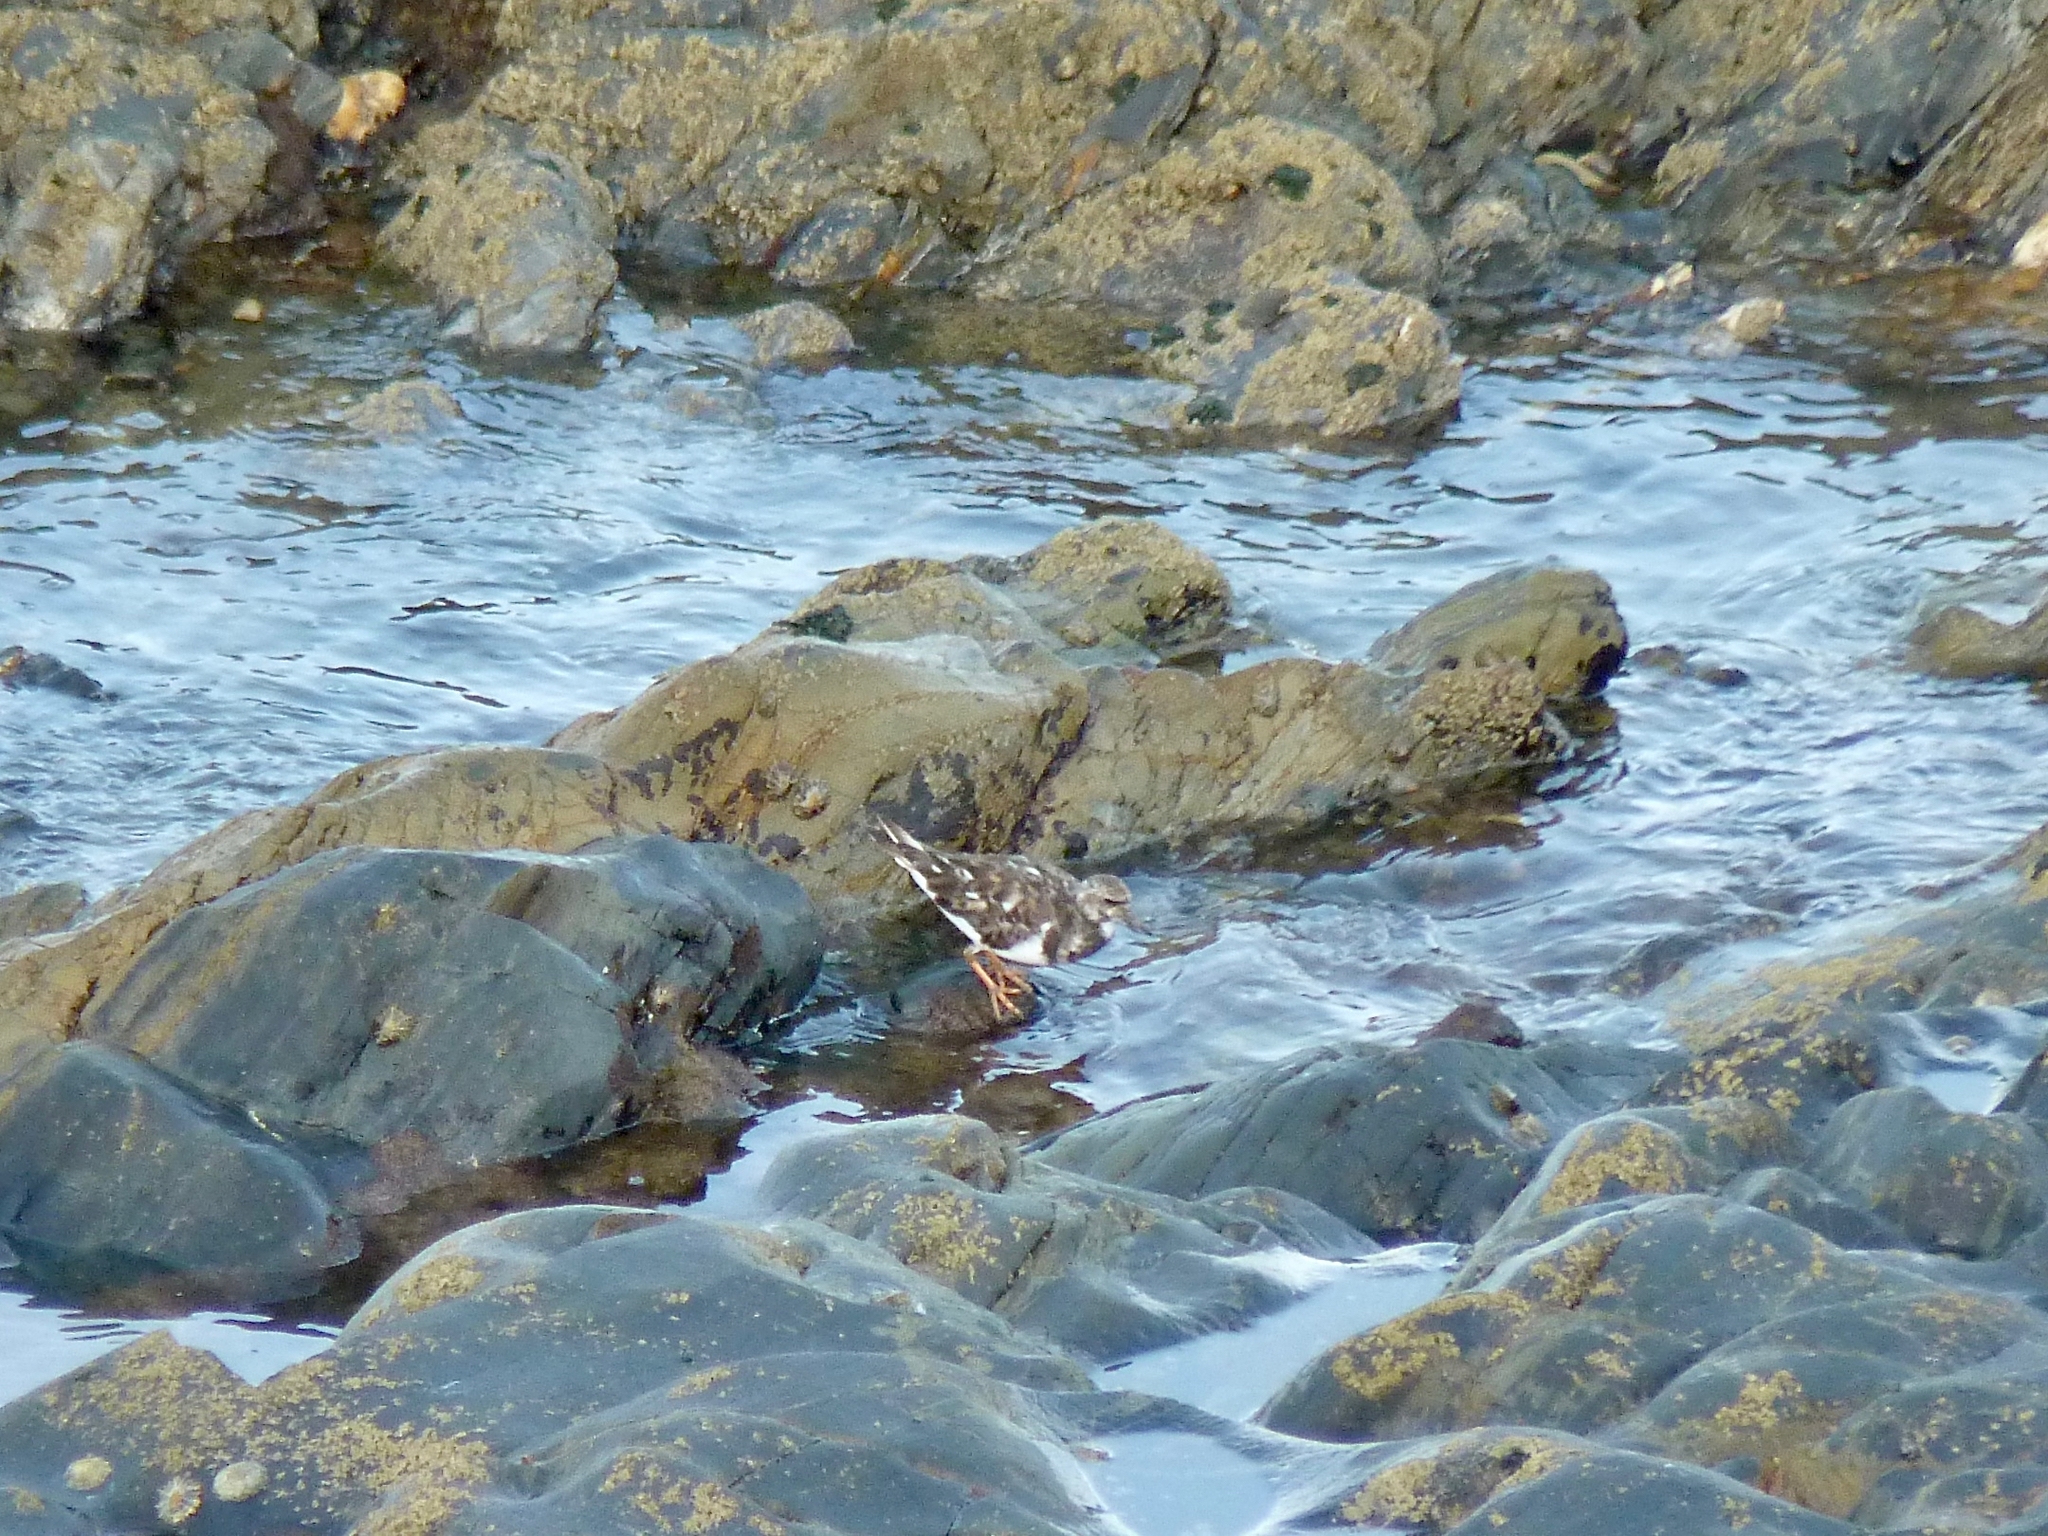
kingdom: Animalia
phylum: Chordata
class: Aves
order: Charadriiformes
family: Scolopacidae
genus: Arenaria
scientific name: Arenaria interpres
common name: Ruddy turnstone
